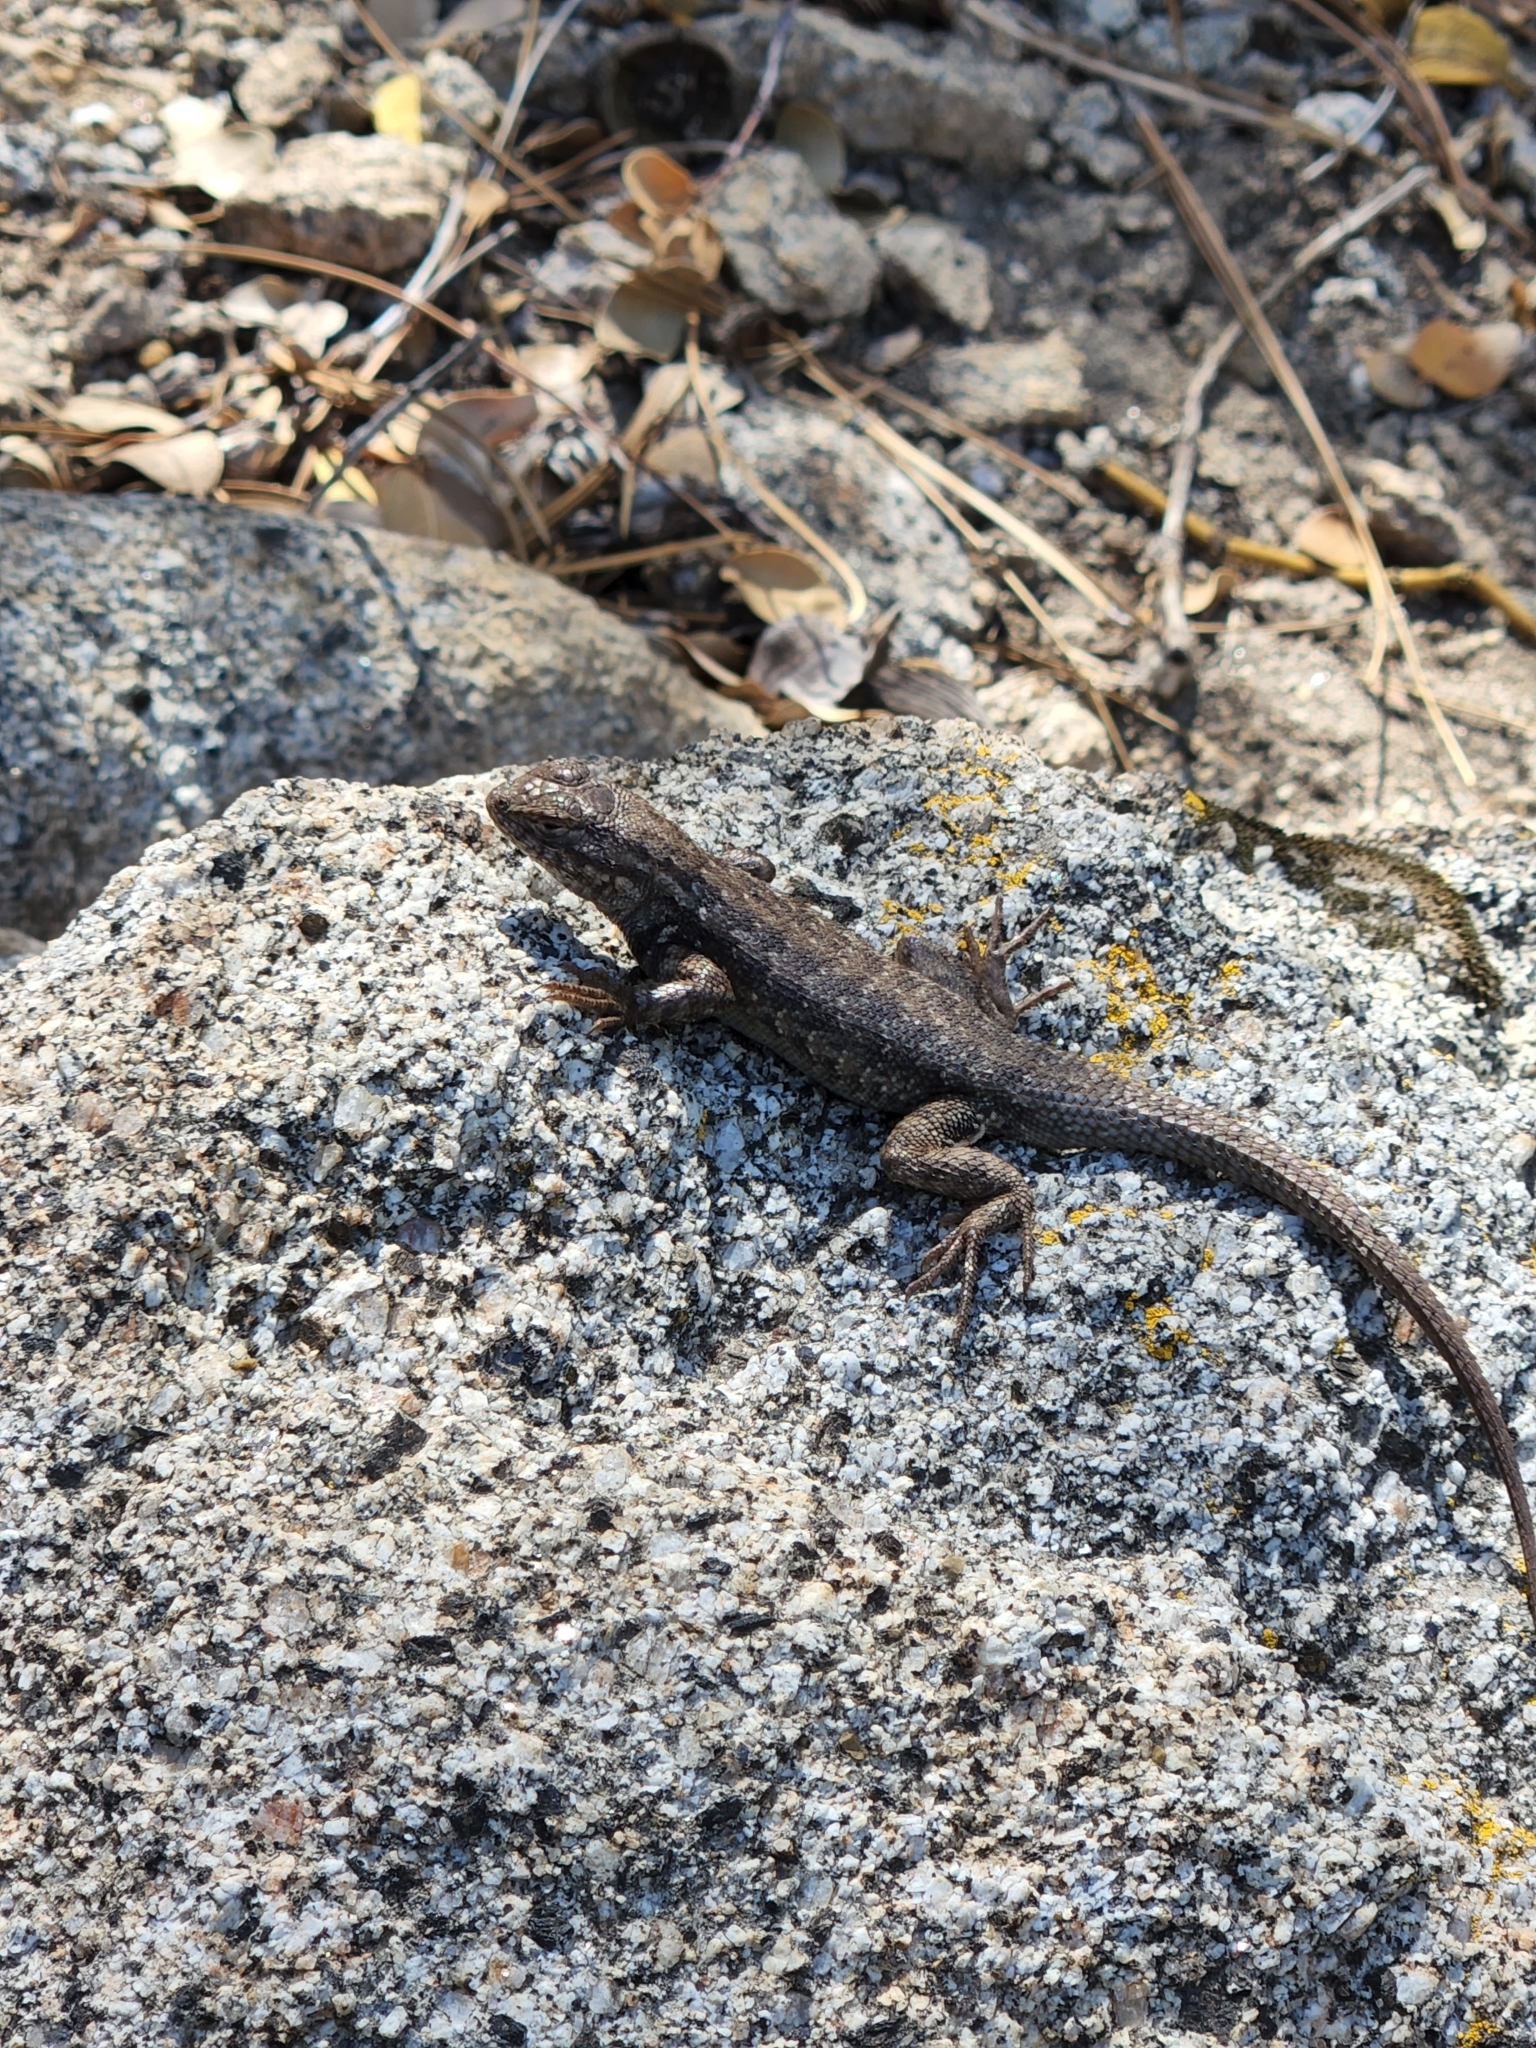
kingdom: Animalia
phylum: Chordata
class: Squamata
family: Phrynosomatidae
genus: Sceloporus
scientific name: Sceloporus graciosus
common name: Sagebrush lizard
